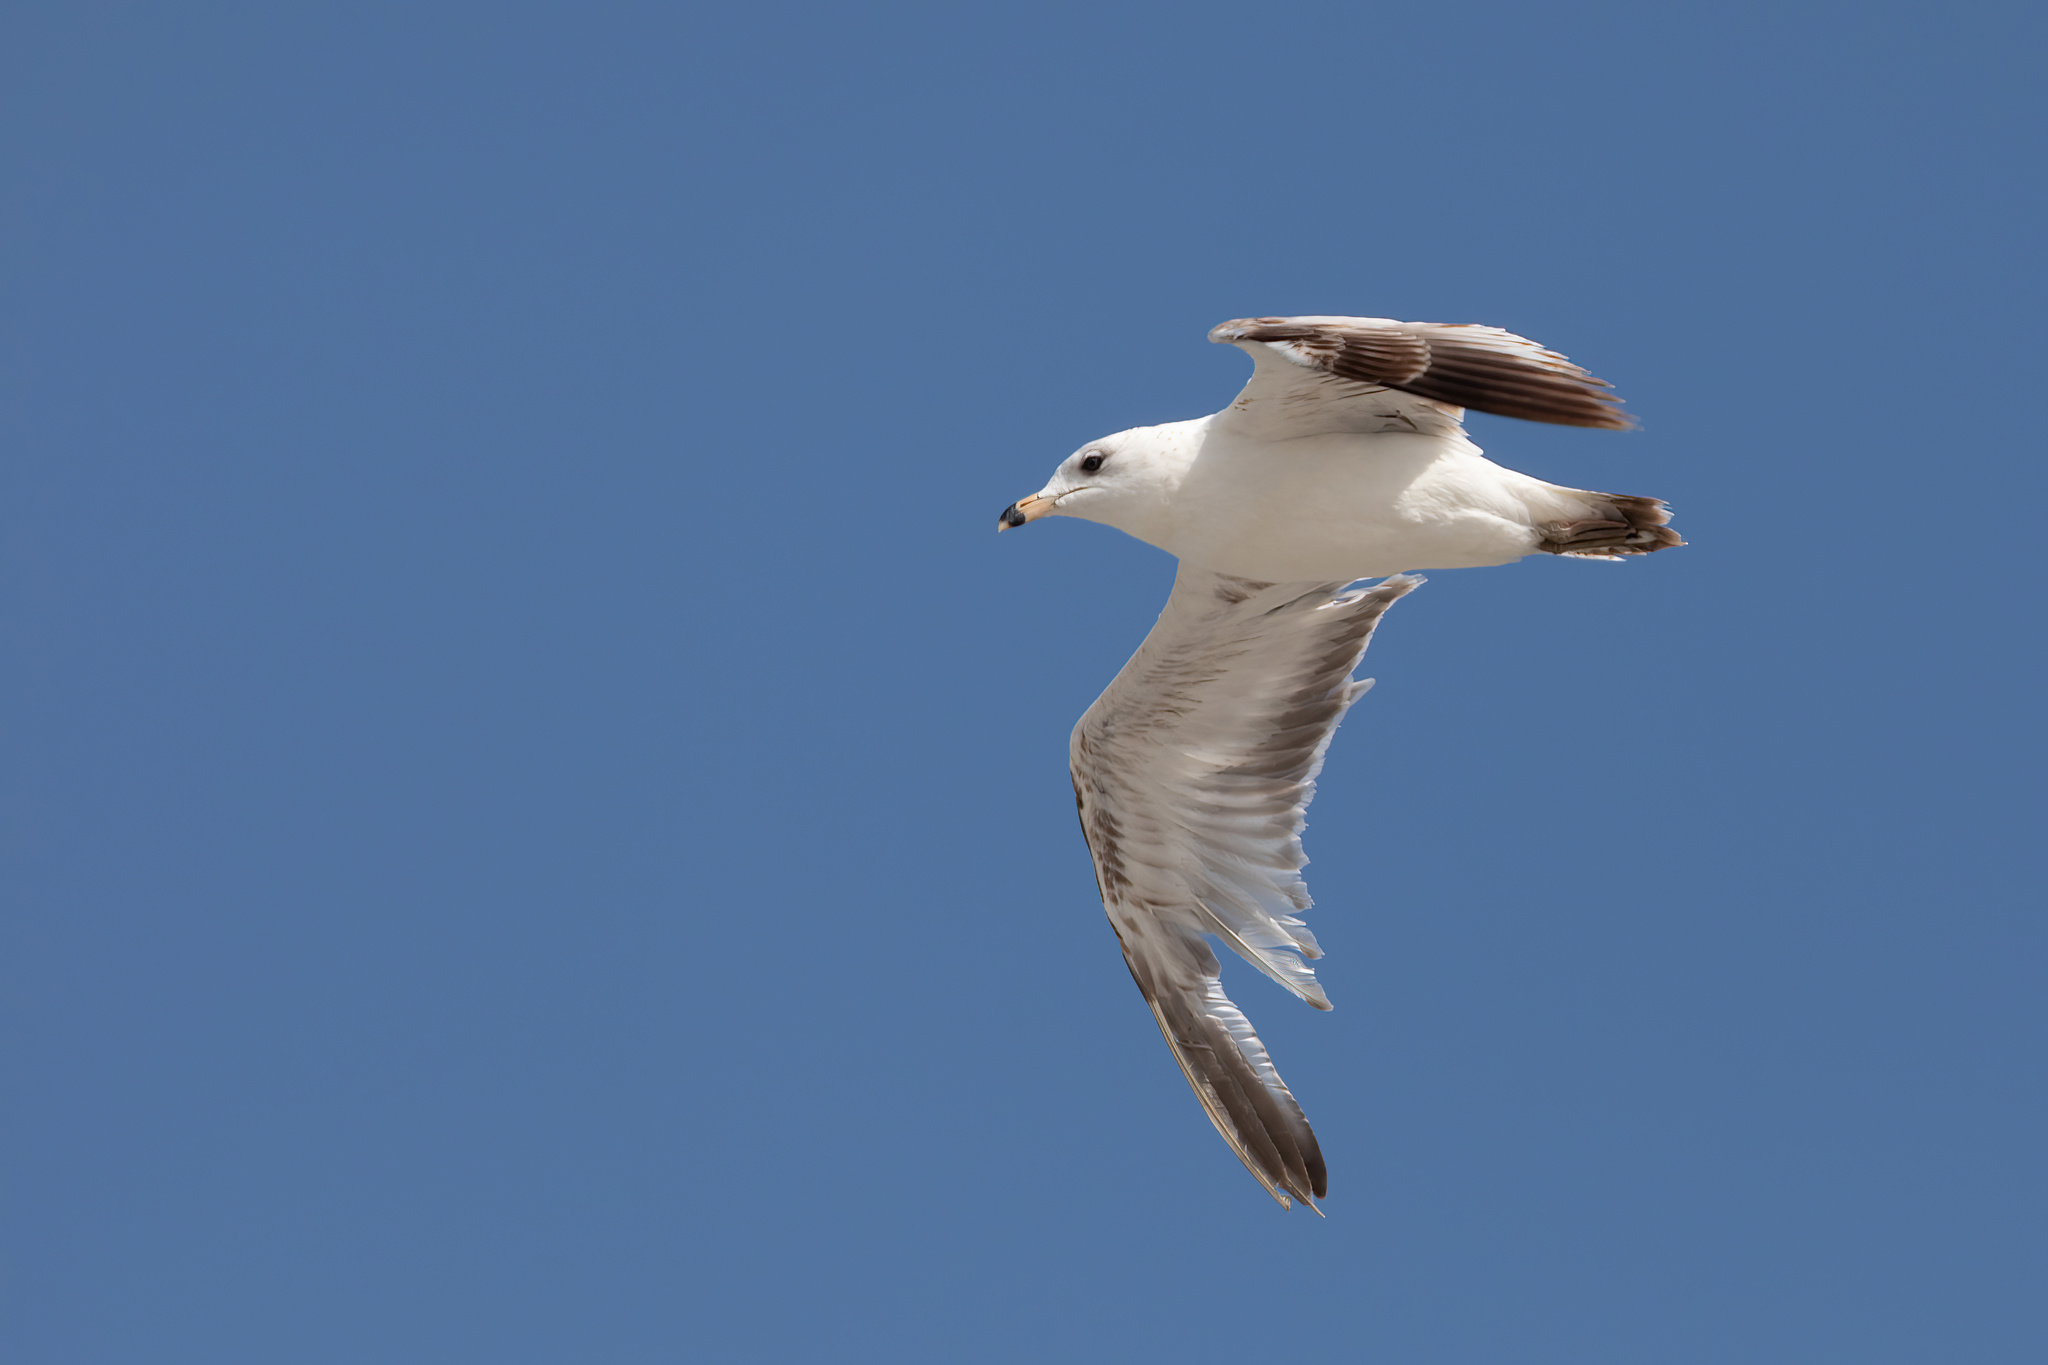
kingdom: Animalia
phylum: Chordata
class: Aves
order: Charadriiformes
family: Laridae
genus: Larus
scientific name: Larus delawarensis
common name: Ring-billed gull
